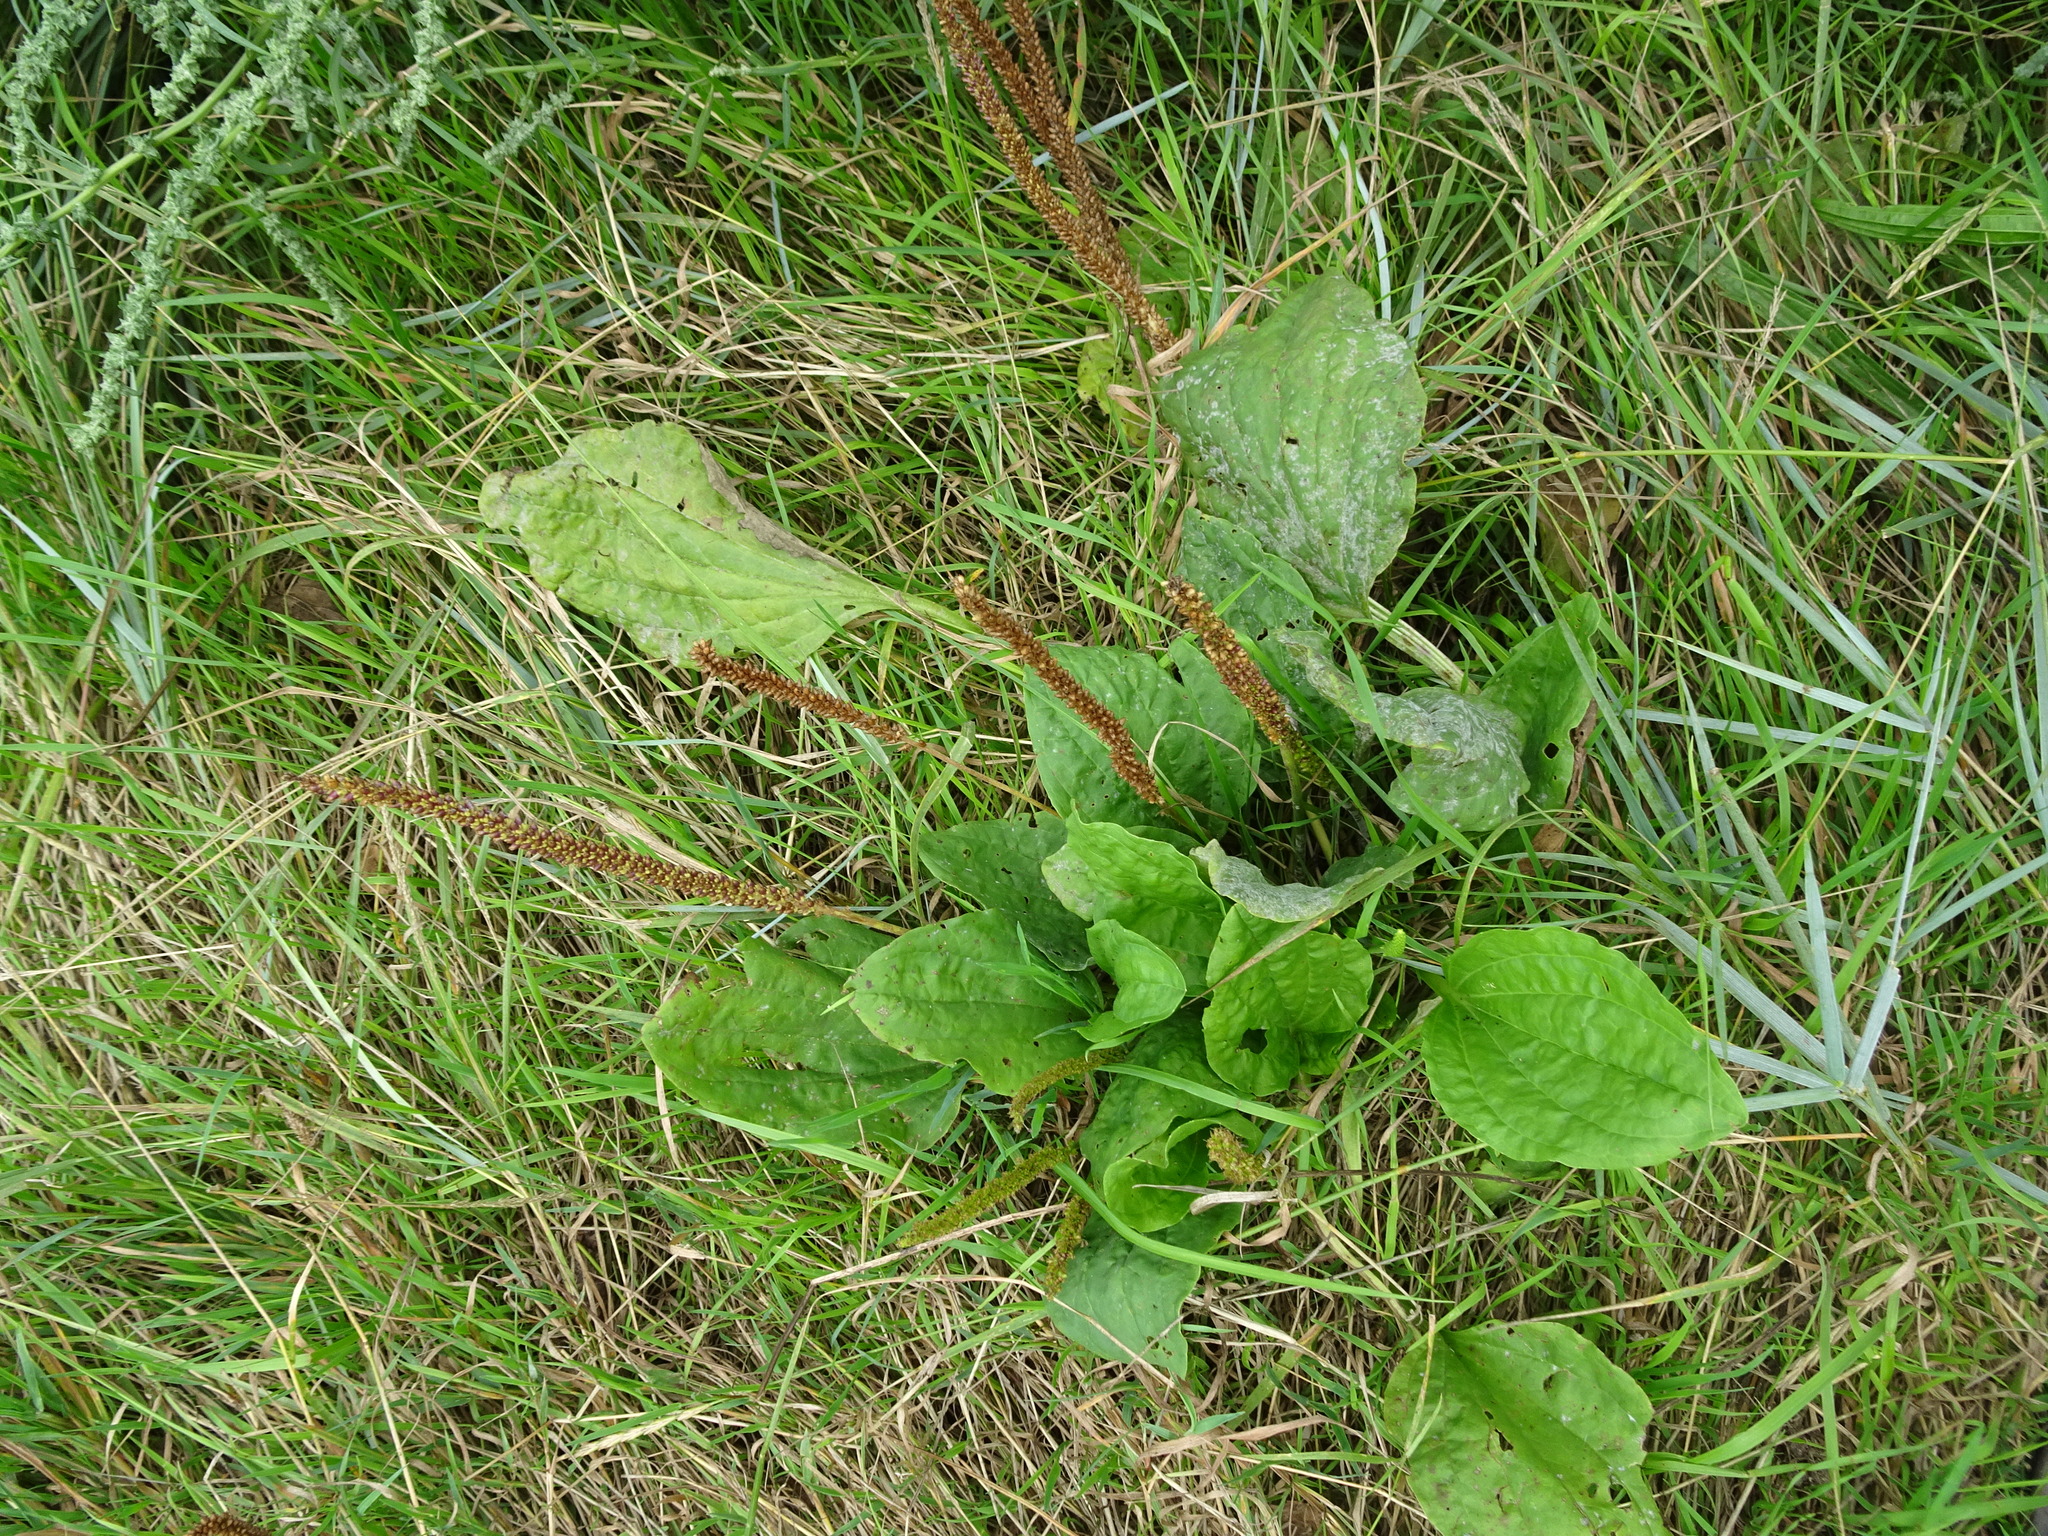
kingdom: Plantae
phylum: Tracheophyta
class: Magnoliopsida
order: Lamiales
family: Plantaginaceae
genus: Plantago
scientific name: Plantago major
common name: Common plantain
